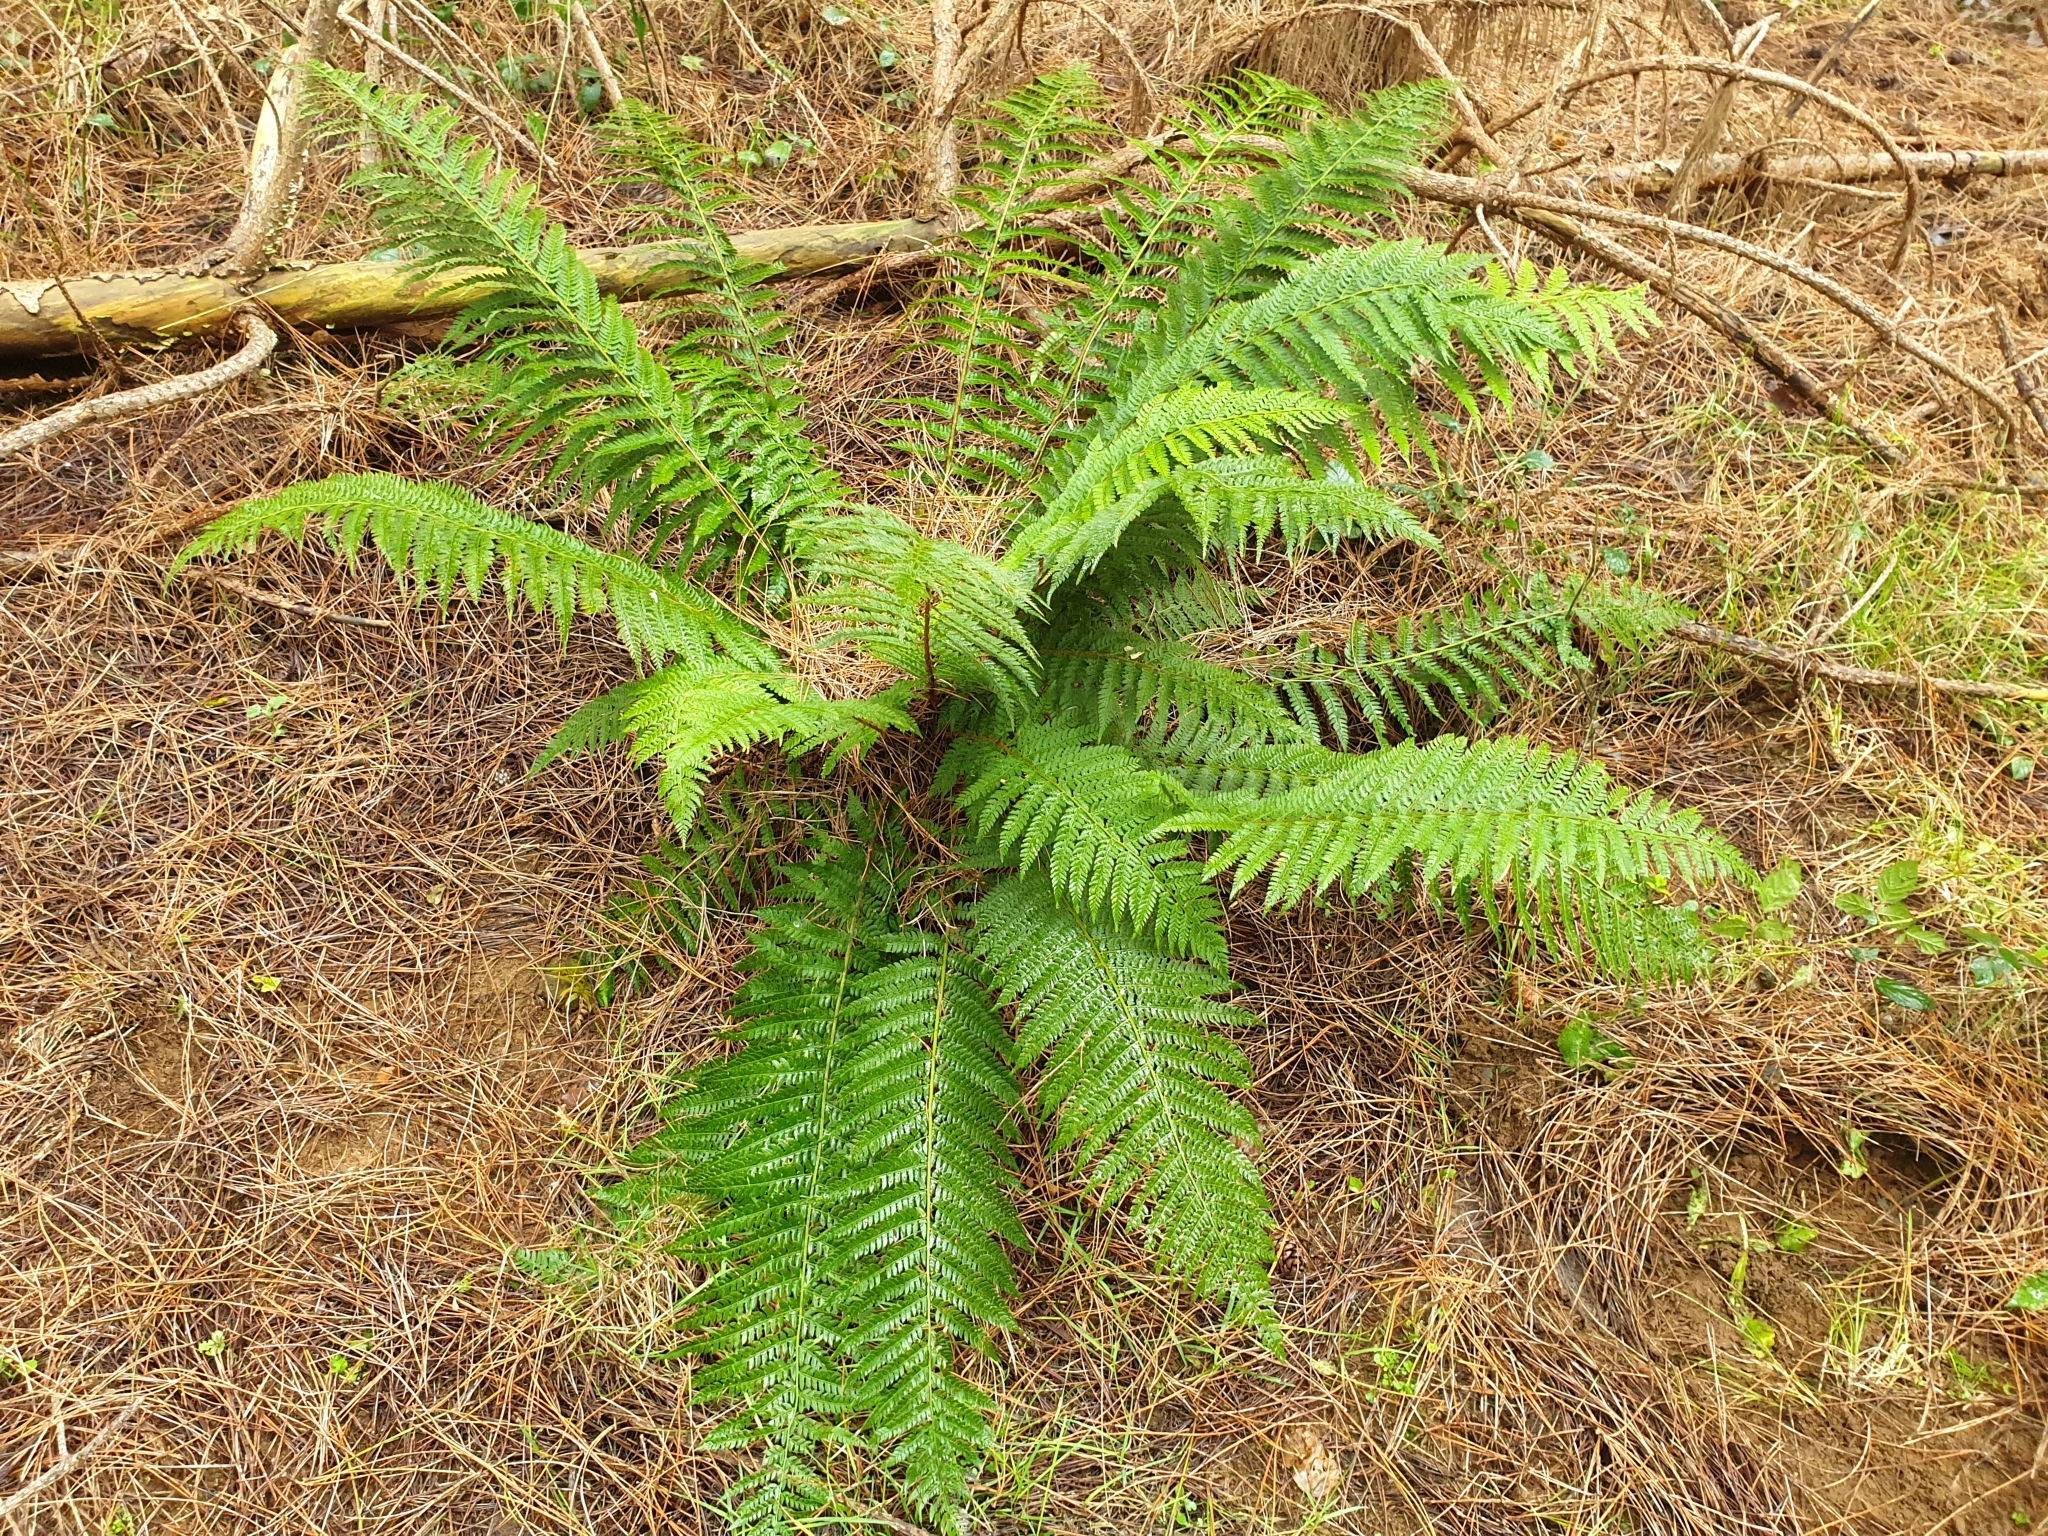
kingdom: Plantae
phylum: Tracheophyta
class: Polypodiopsida
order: Polypodiales
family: Dryopteridaceae
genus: Polystichum
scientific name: Polystichum setiferum
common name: Soft shield-fern
